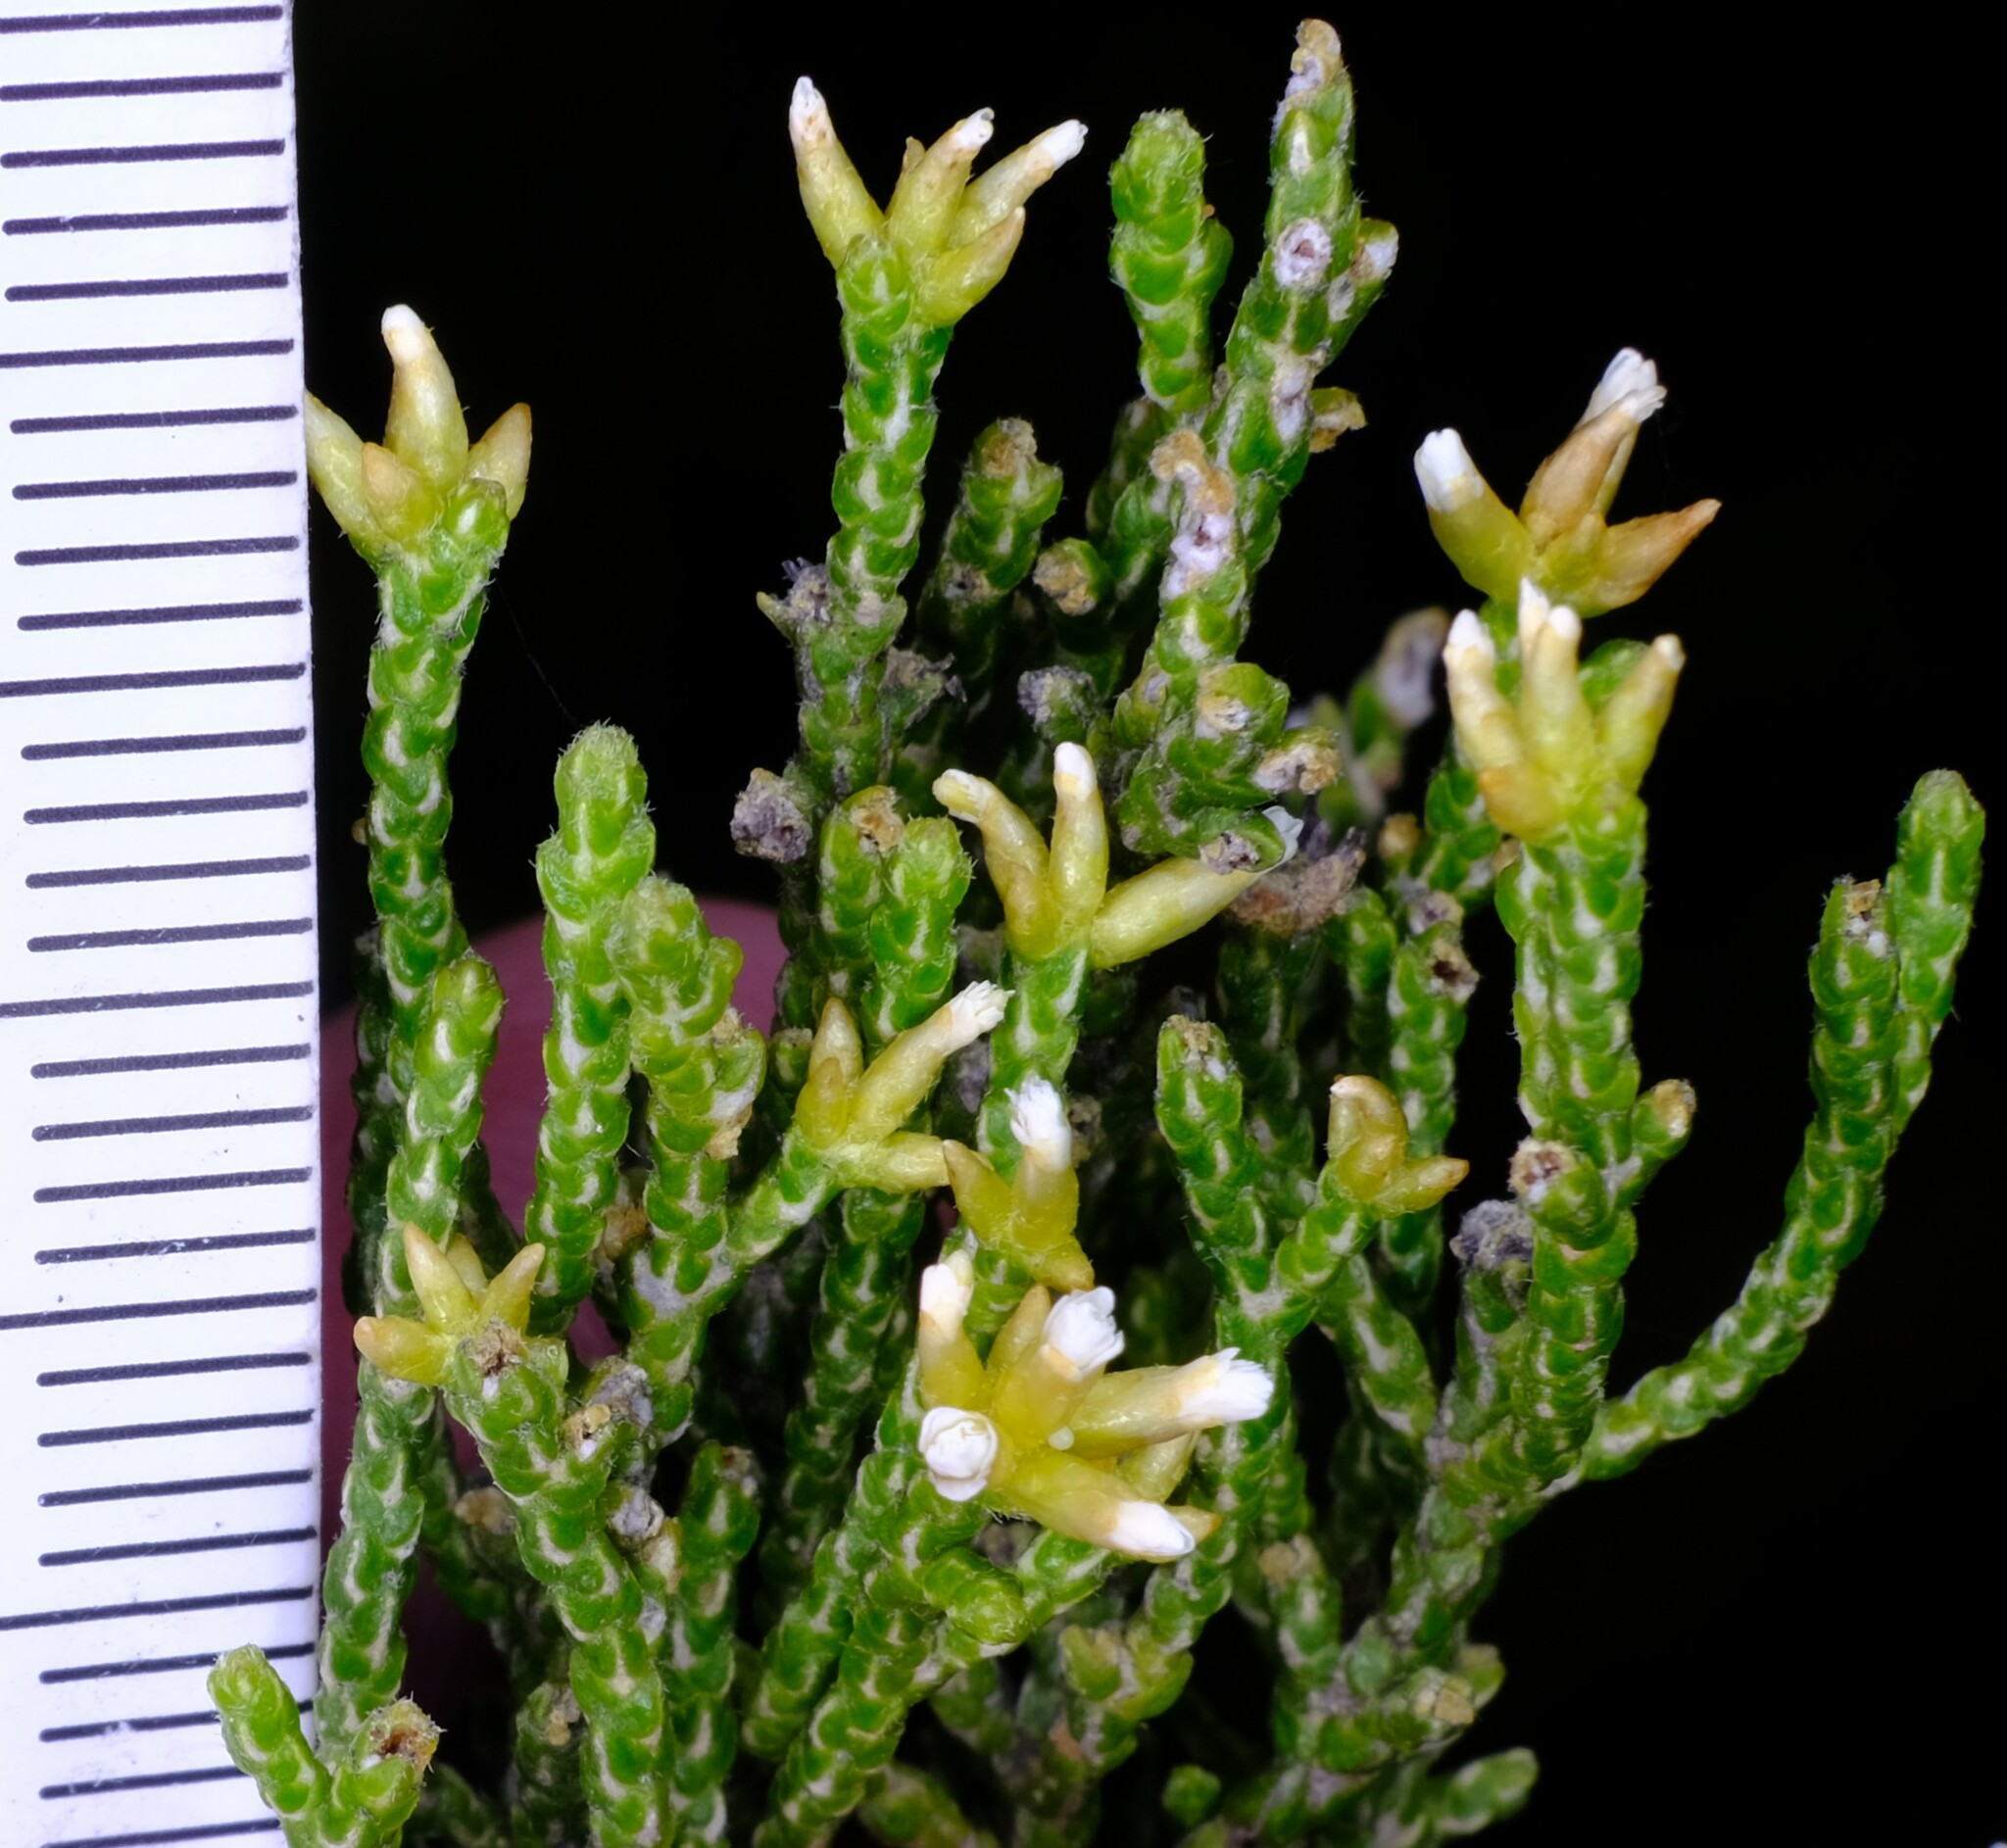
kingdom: Plantae
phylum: Tracheophyta
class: Magnoliopsida
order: Asterales
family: Asteraceae
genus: Ozothamnus
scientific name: Ozothamnus hookeri
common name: Kerosene-bush
